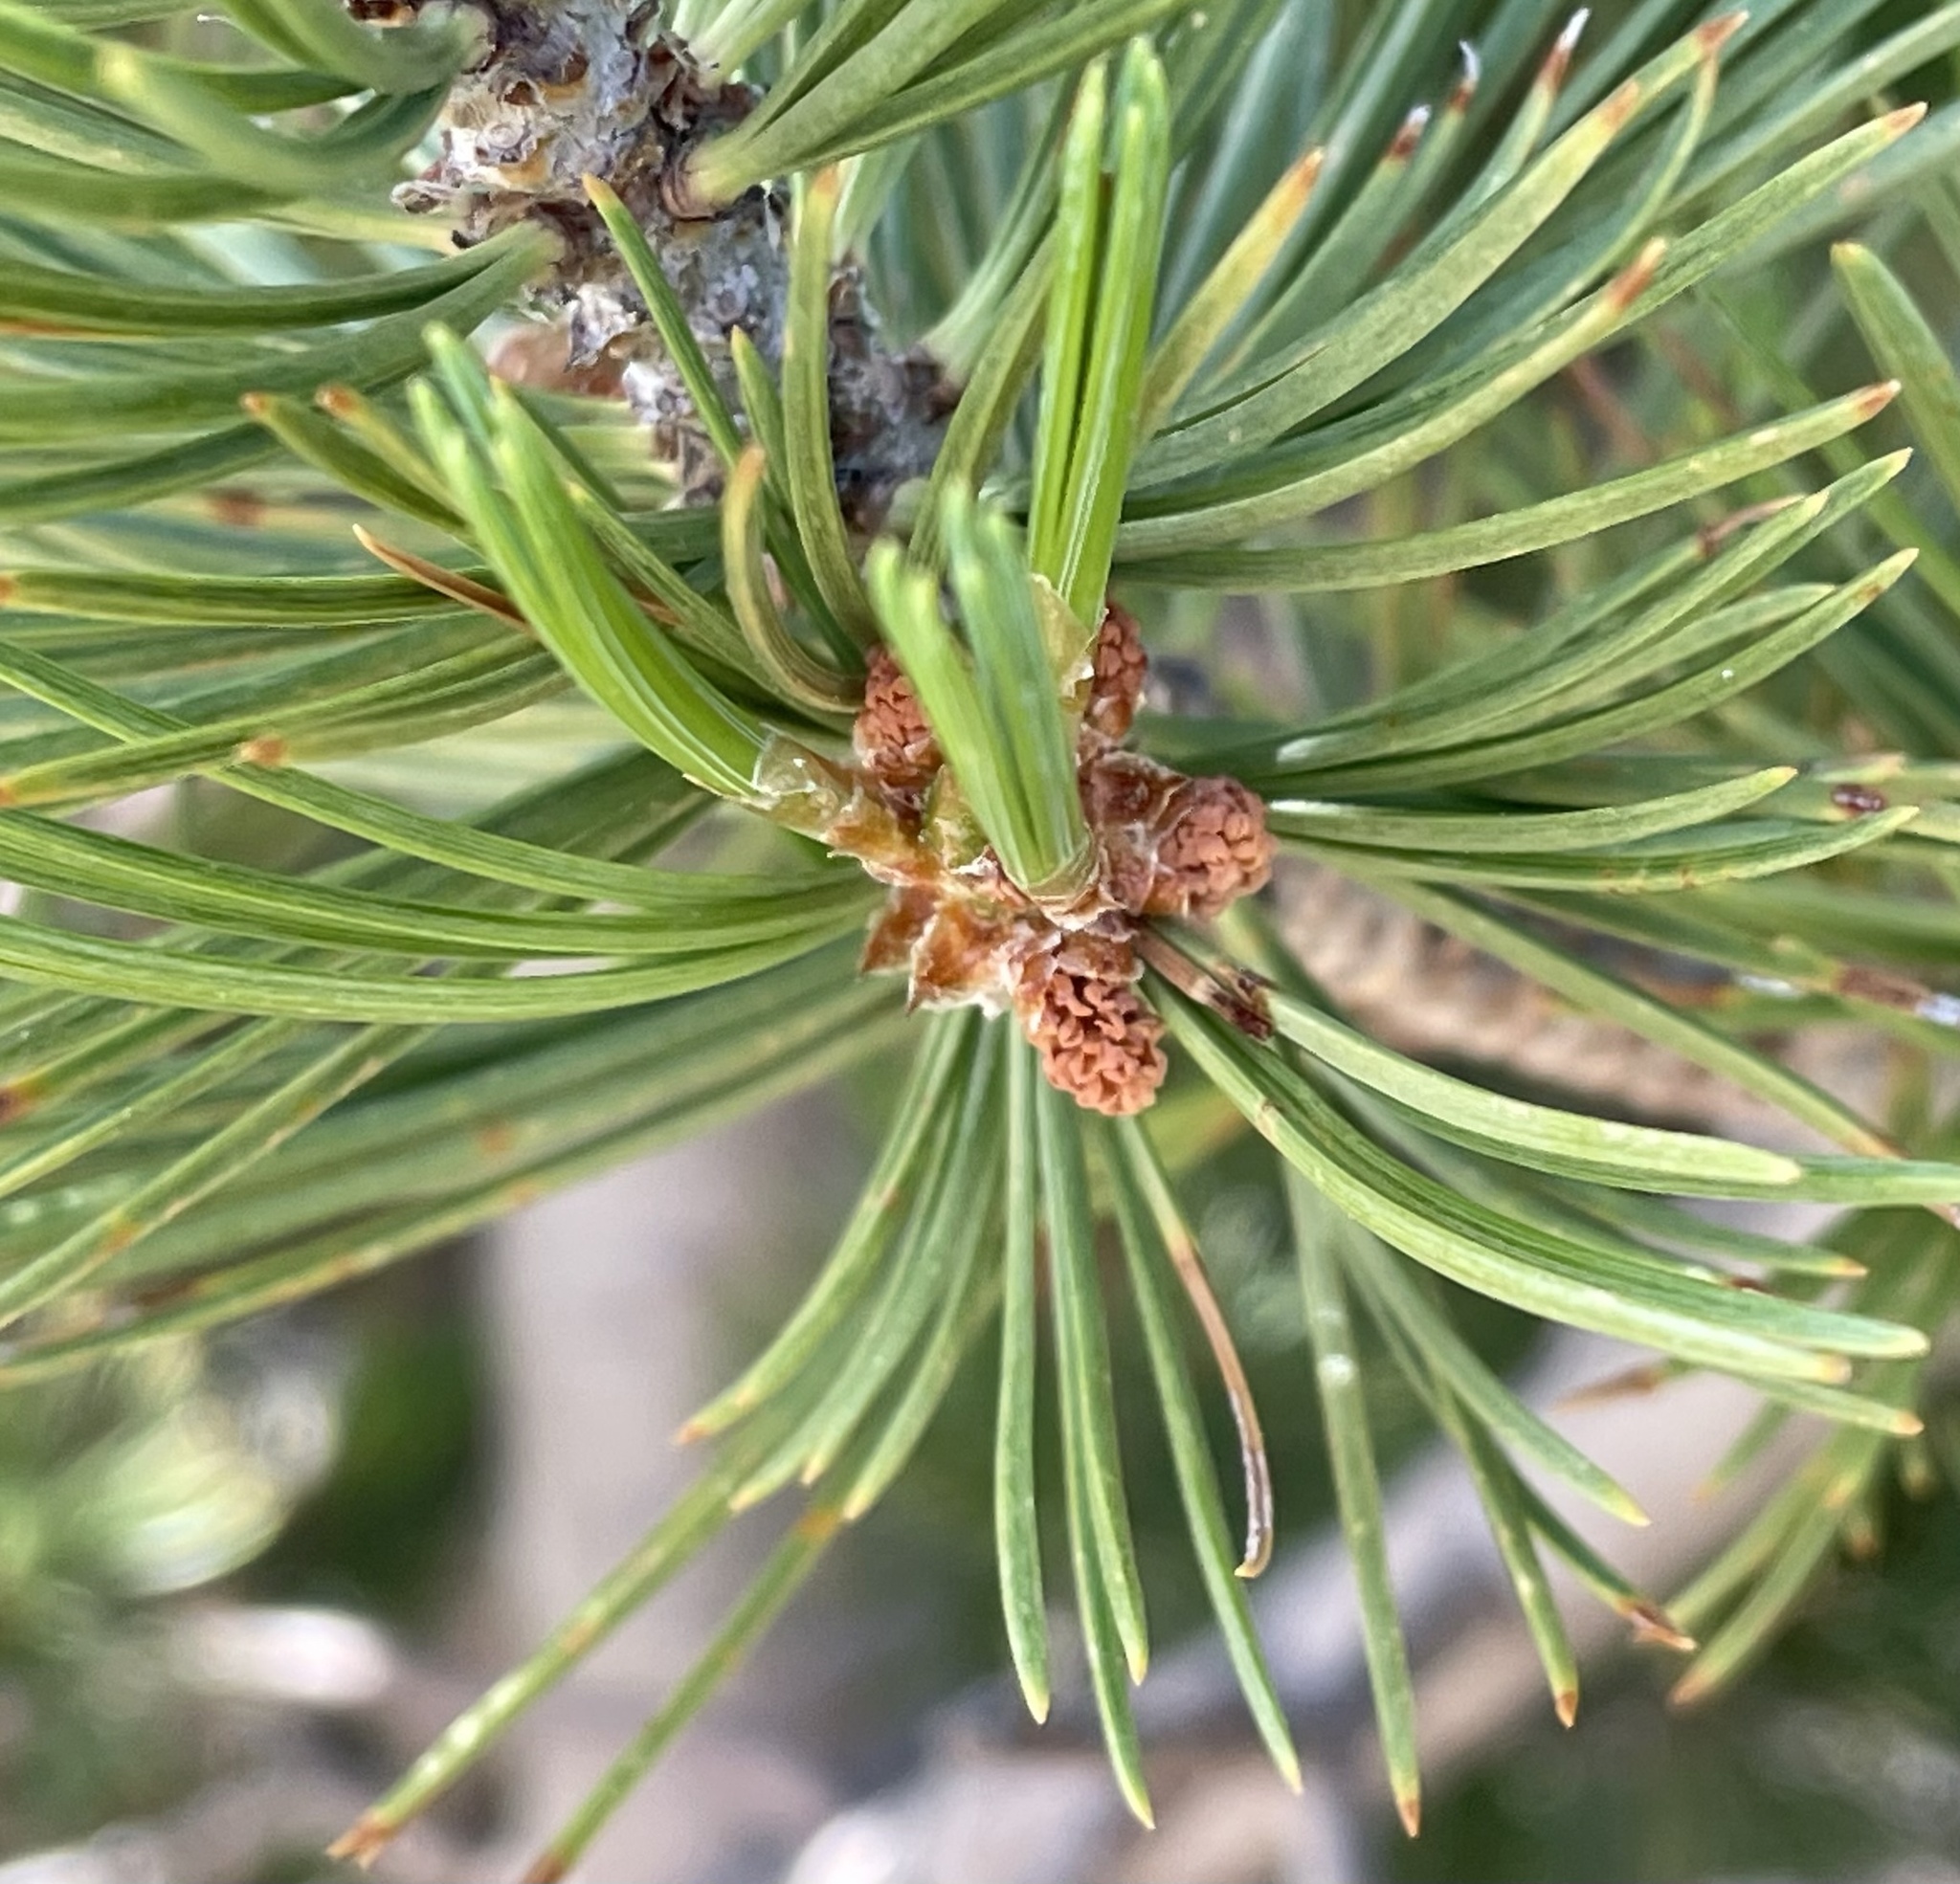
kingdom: Plantae
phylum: Tracheophyta
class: Pinopsida
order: Pinales
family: Pinaceae
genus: Pinus
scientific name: Pinus flexilis
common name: Limber pine
